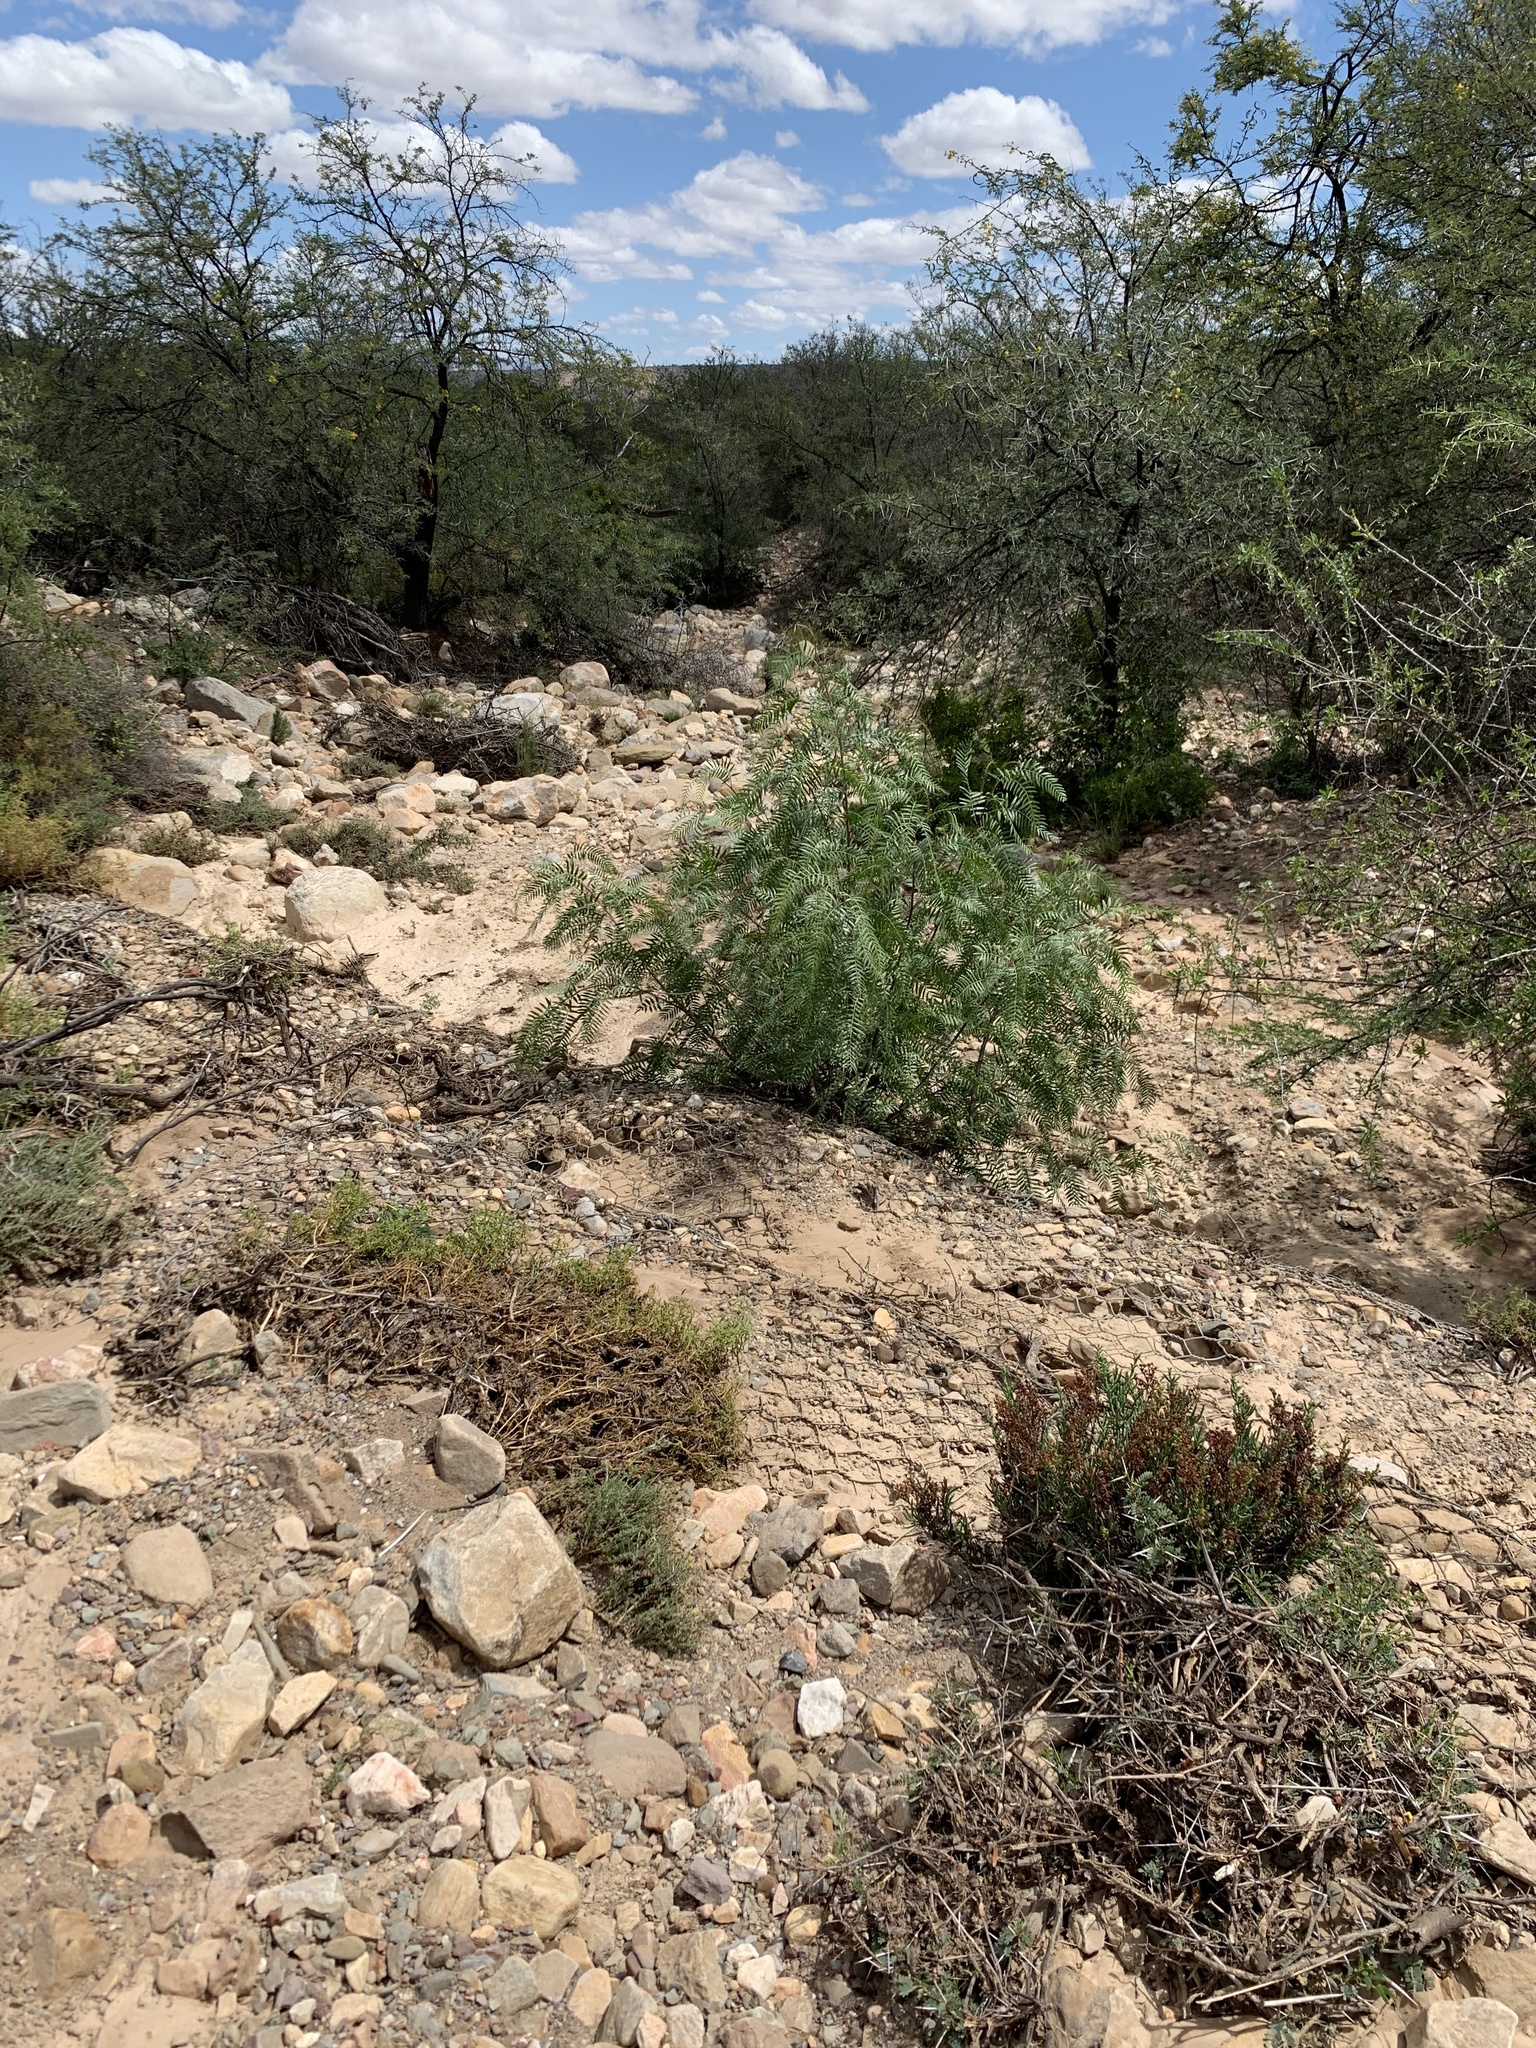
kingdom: Plantae
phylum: Tracheophyta
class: Magnoliopsida
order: Sapindales
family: Anacardiaceae
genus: Schinus
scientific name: Schinus molle
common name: Peruvian peppertree
